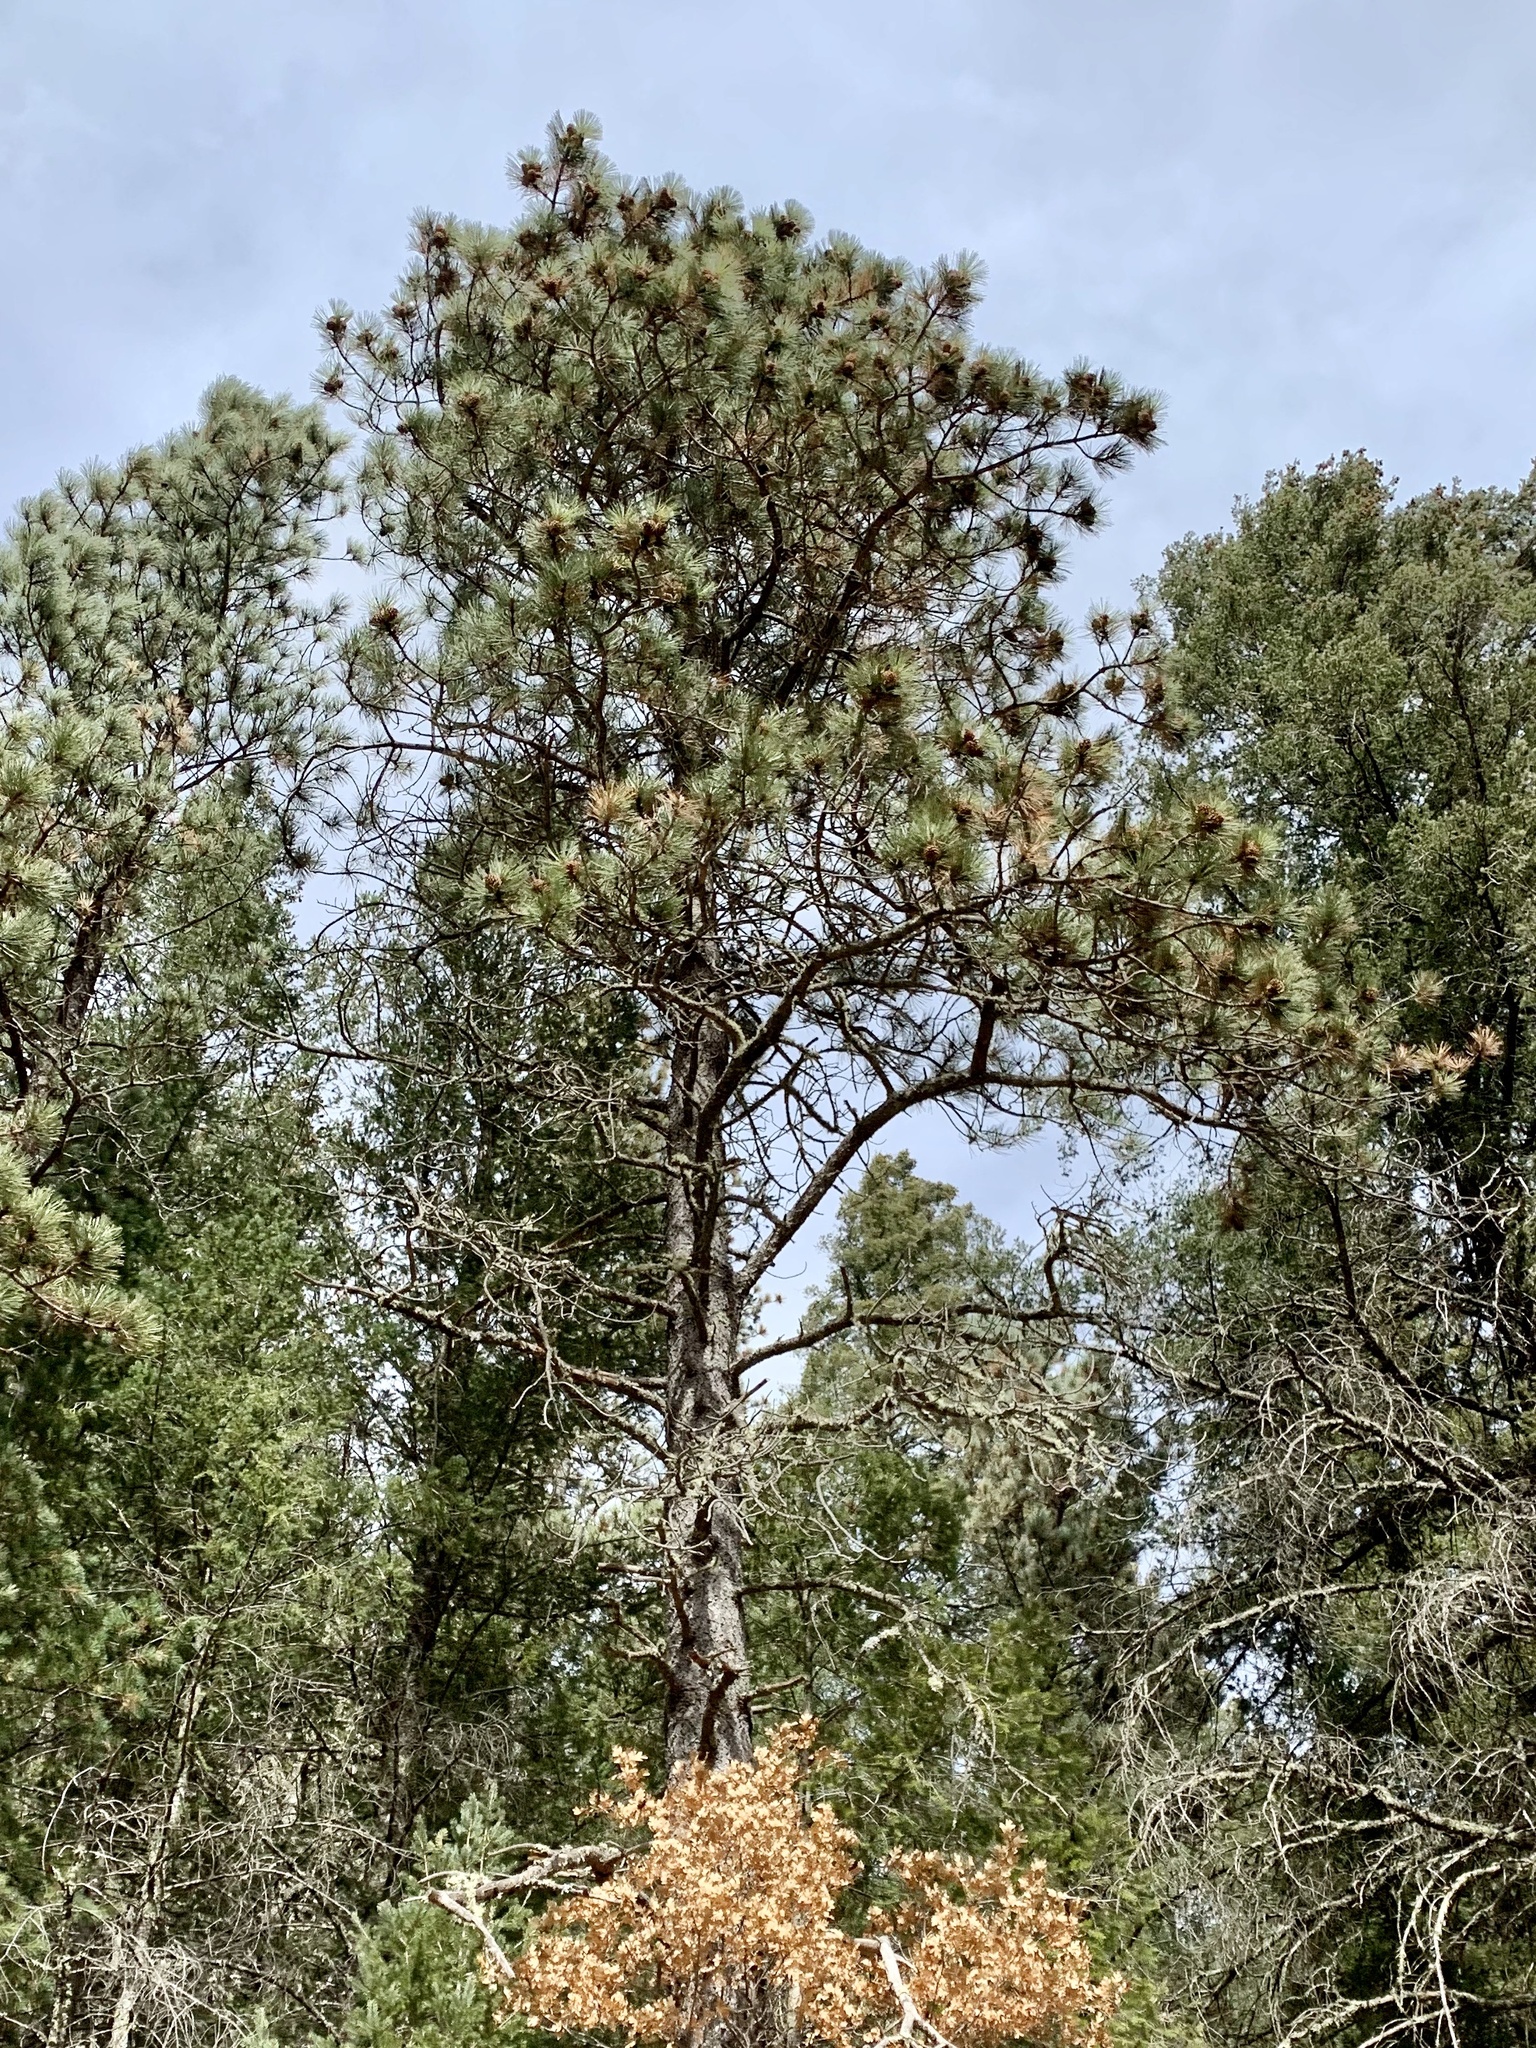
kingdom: Plantae
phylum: Tracheophyta
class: Pinopsida
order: Pinales
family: Pinaceae
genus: Pinus
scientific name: Pinus ponderosa
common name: Western yellow-pine
